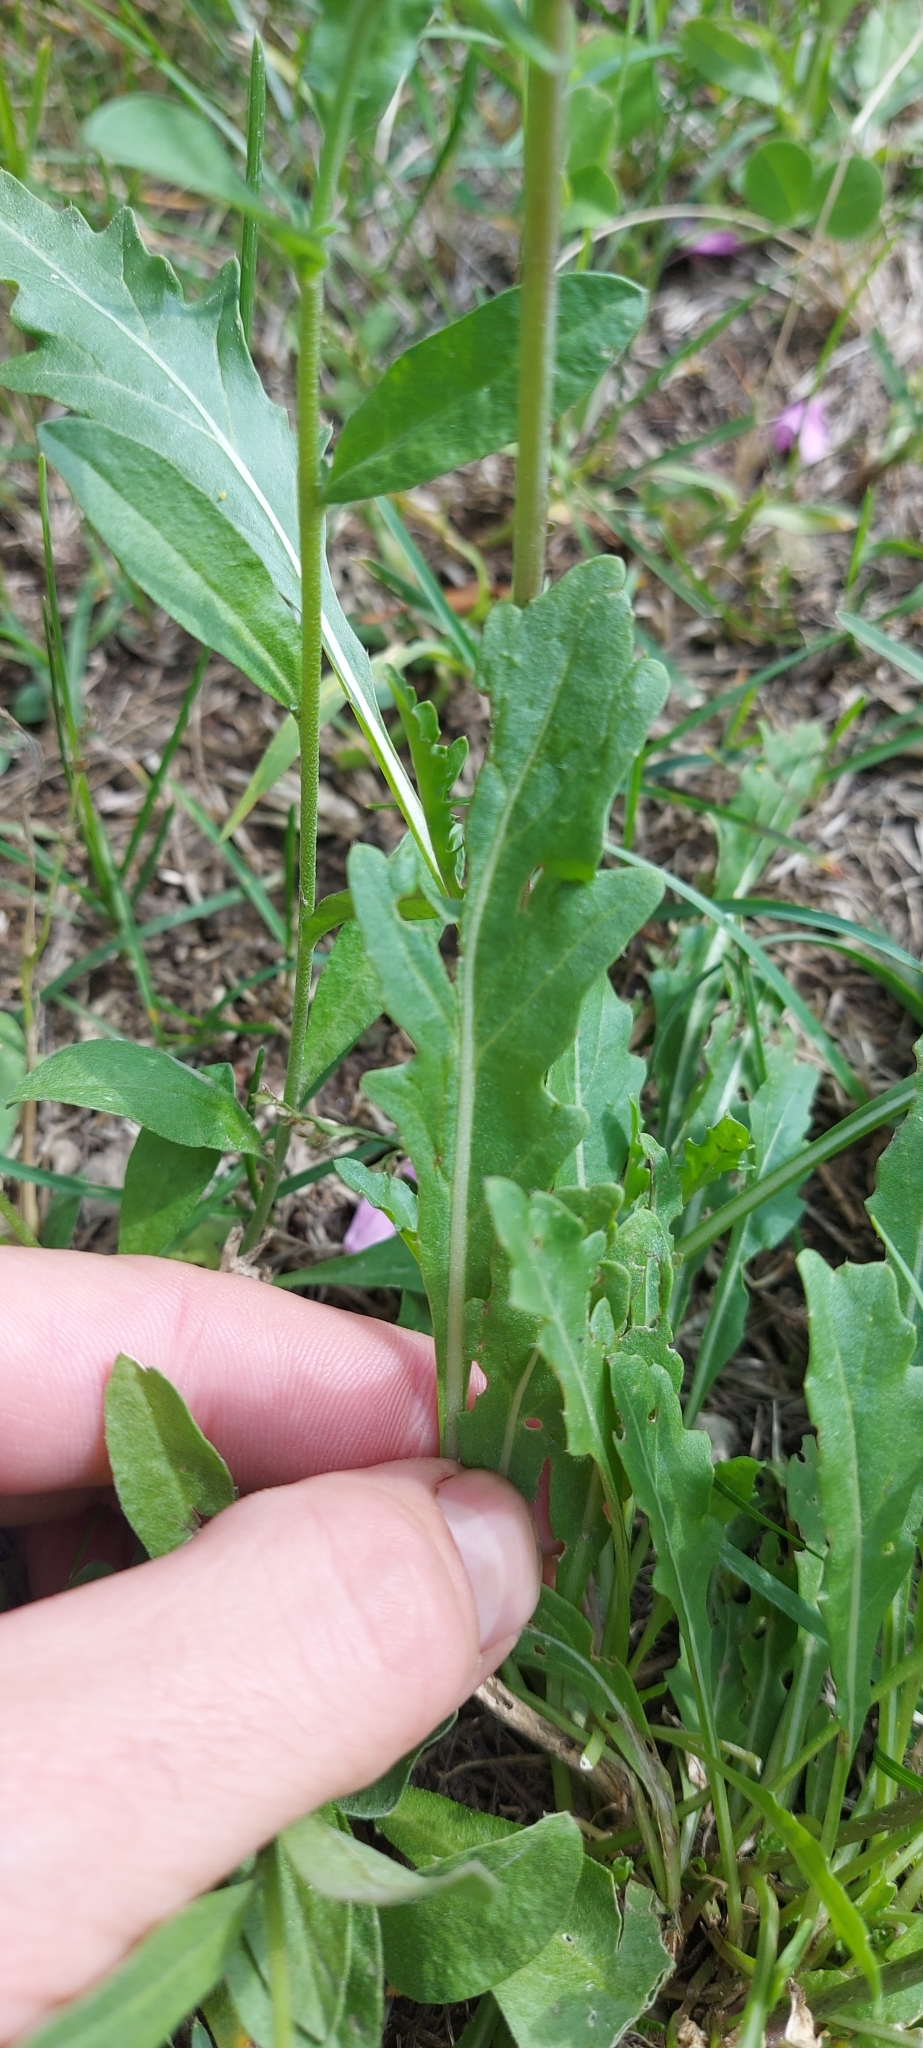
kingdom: Plantae
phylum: Tracheophyta
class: Magnoliopsida
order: Brassicales
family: Brassicaceae
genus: Diplotaxis
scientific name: Diplotaxis tenuifolia
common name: Perennial wall-rocket
